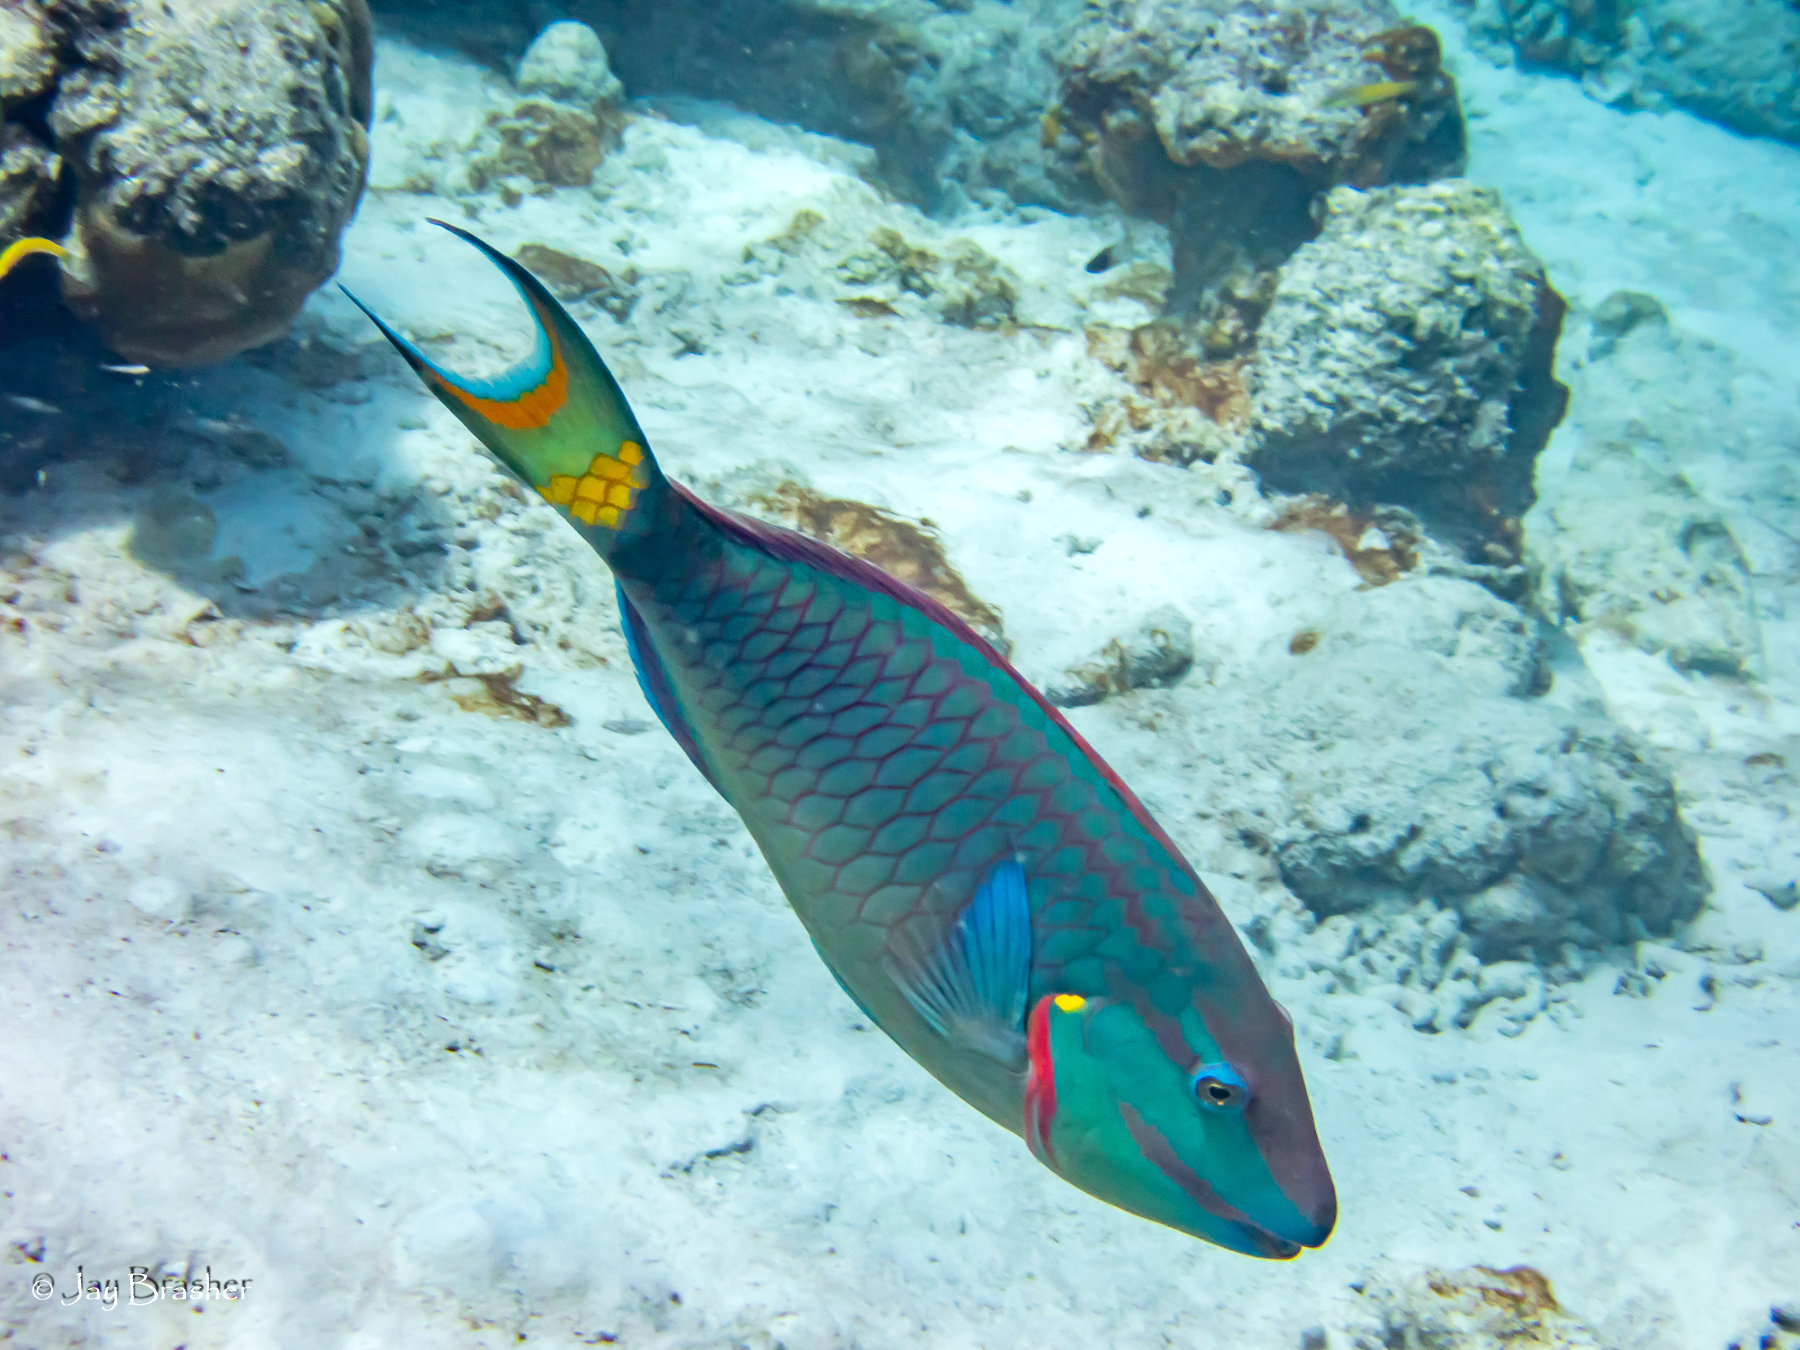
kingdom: Animalia
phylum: Chordata
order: Perciformes
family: Scaridae
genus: Sparisoma
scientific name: Sparisoma viride
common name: Stoplight parrotfish
